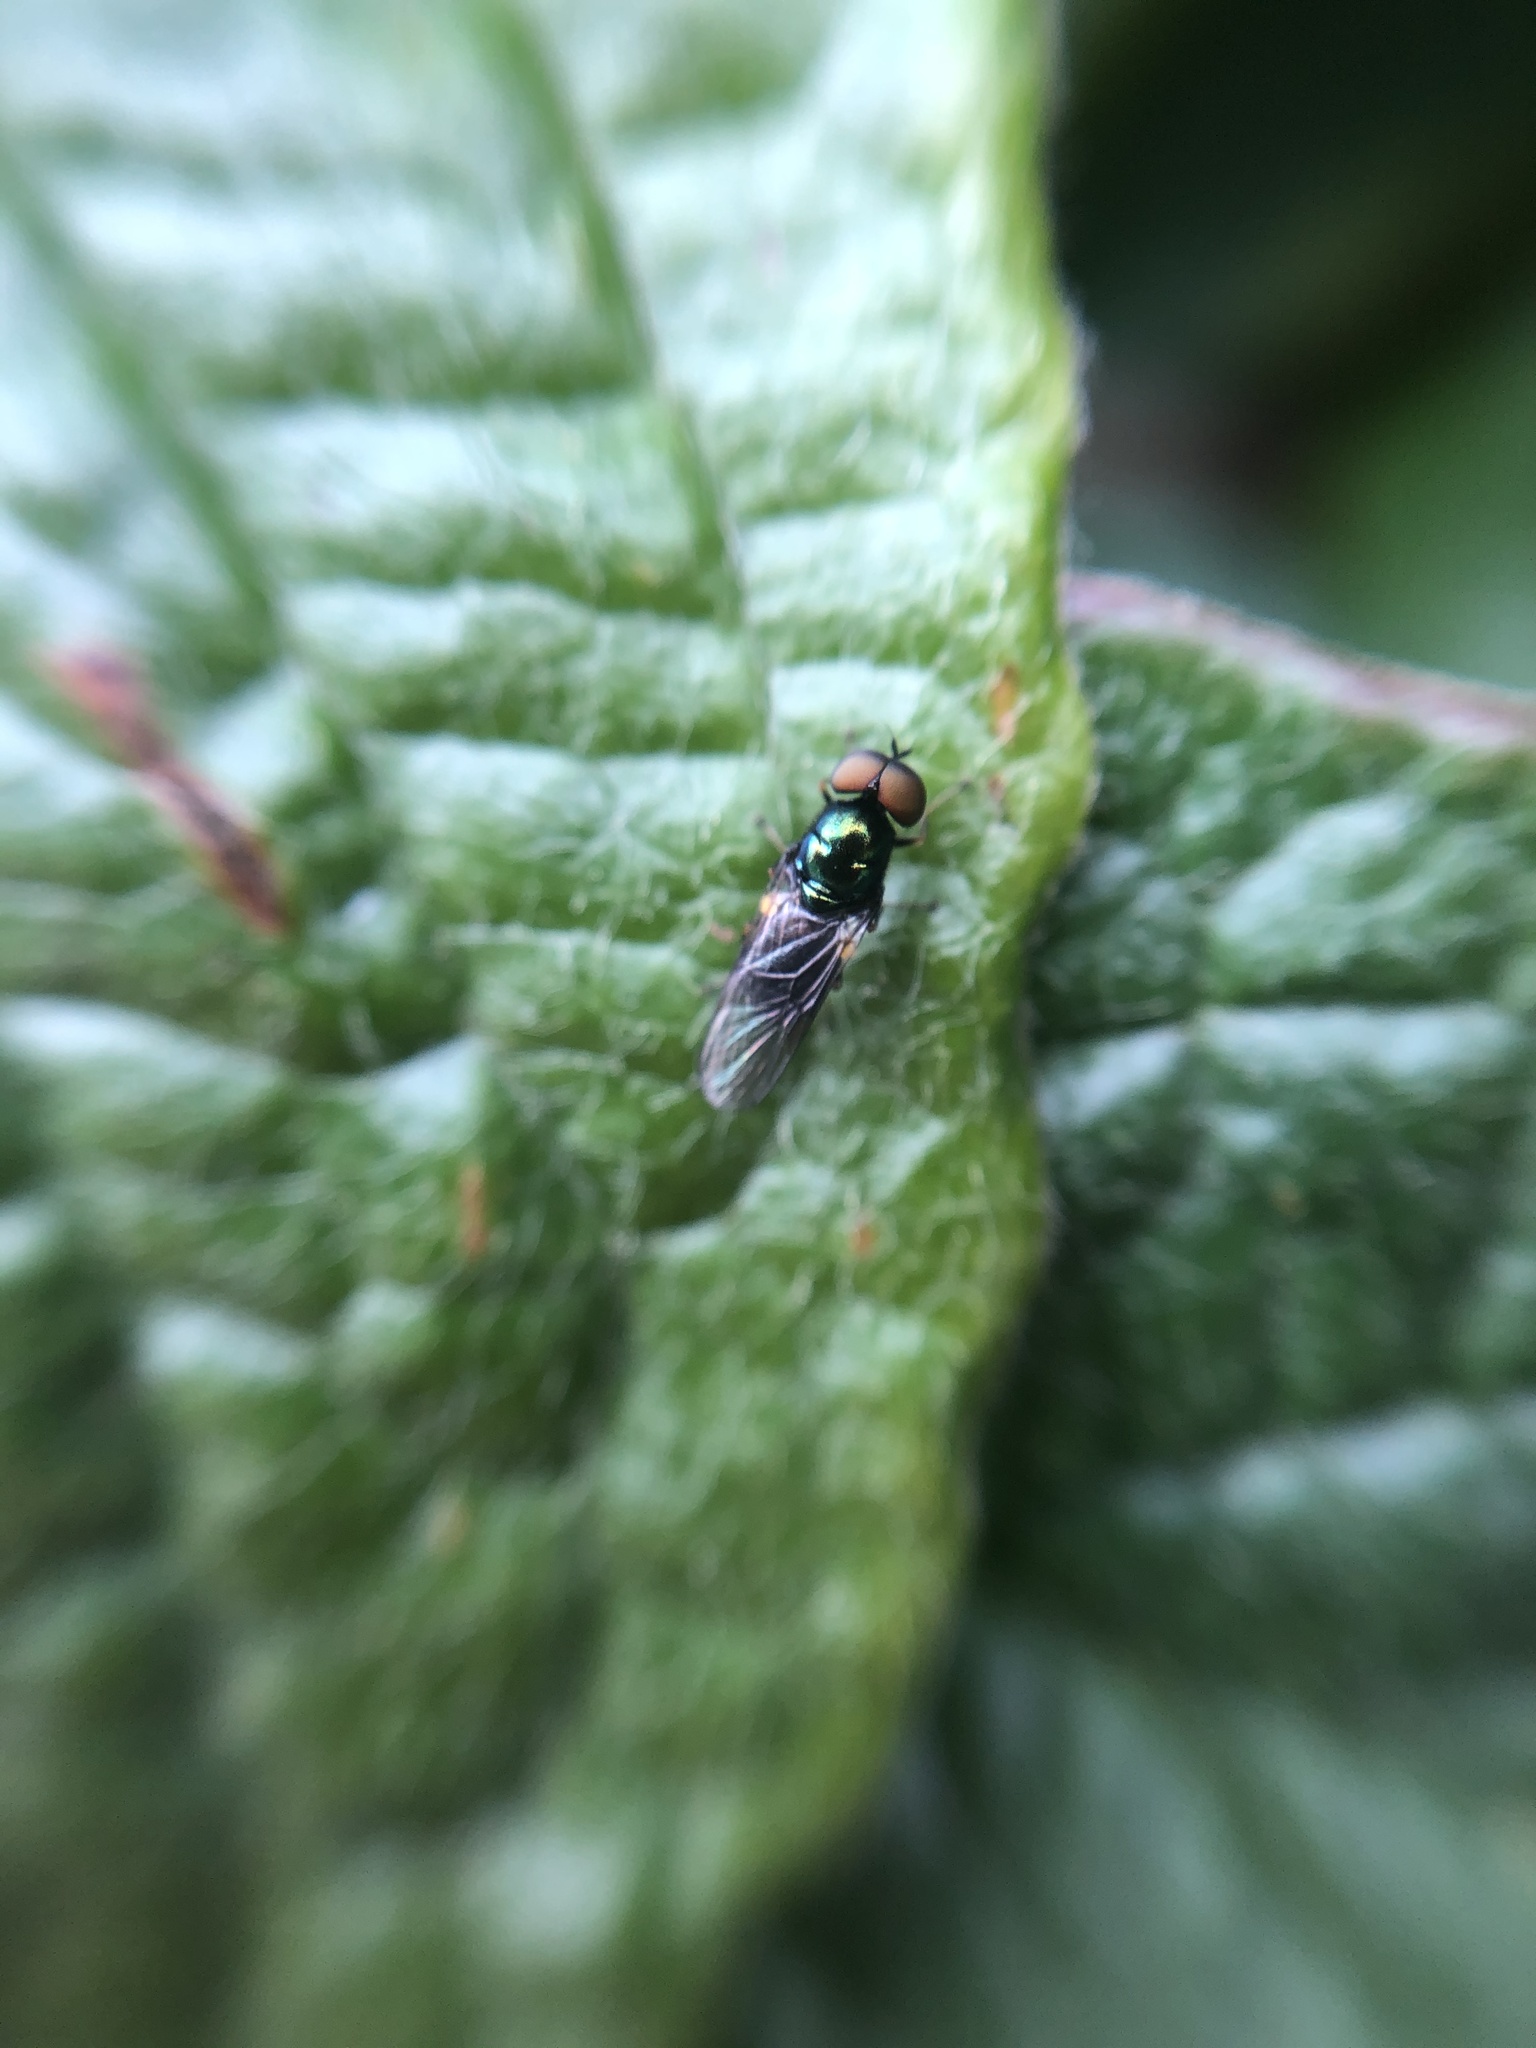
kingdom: Animalia
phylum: Arthropoda
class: Insecta
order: Diptera
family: Stratiomyidae
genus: Microchrysa
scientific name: Microchrysa polita
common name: Black-horned gem
